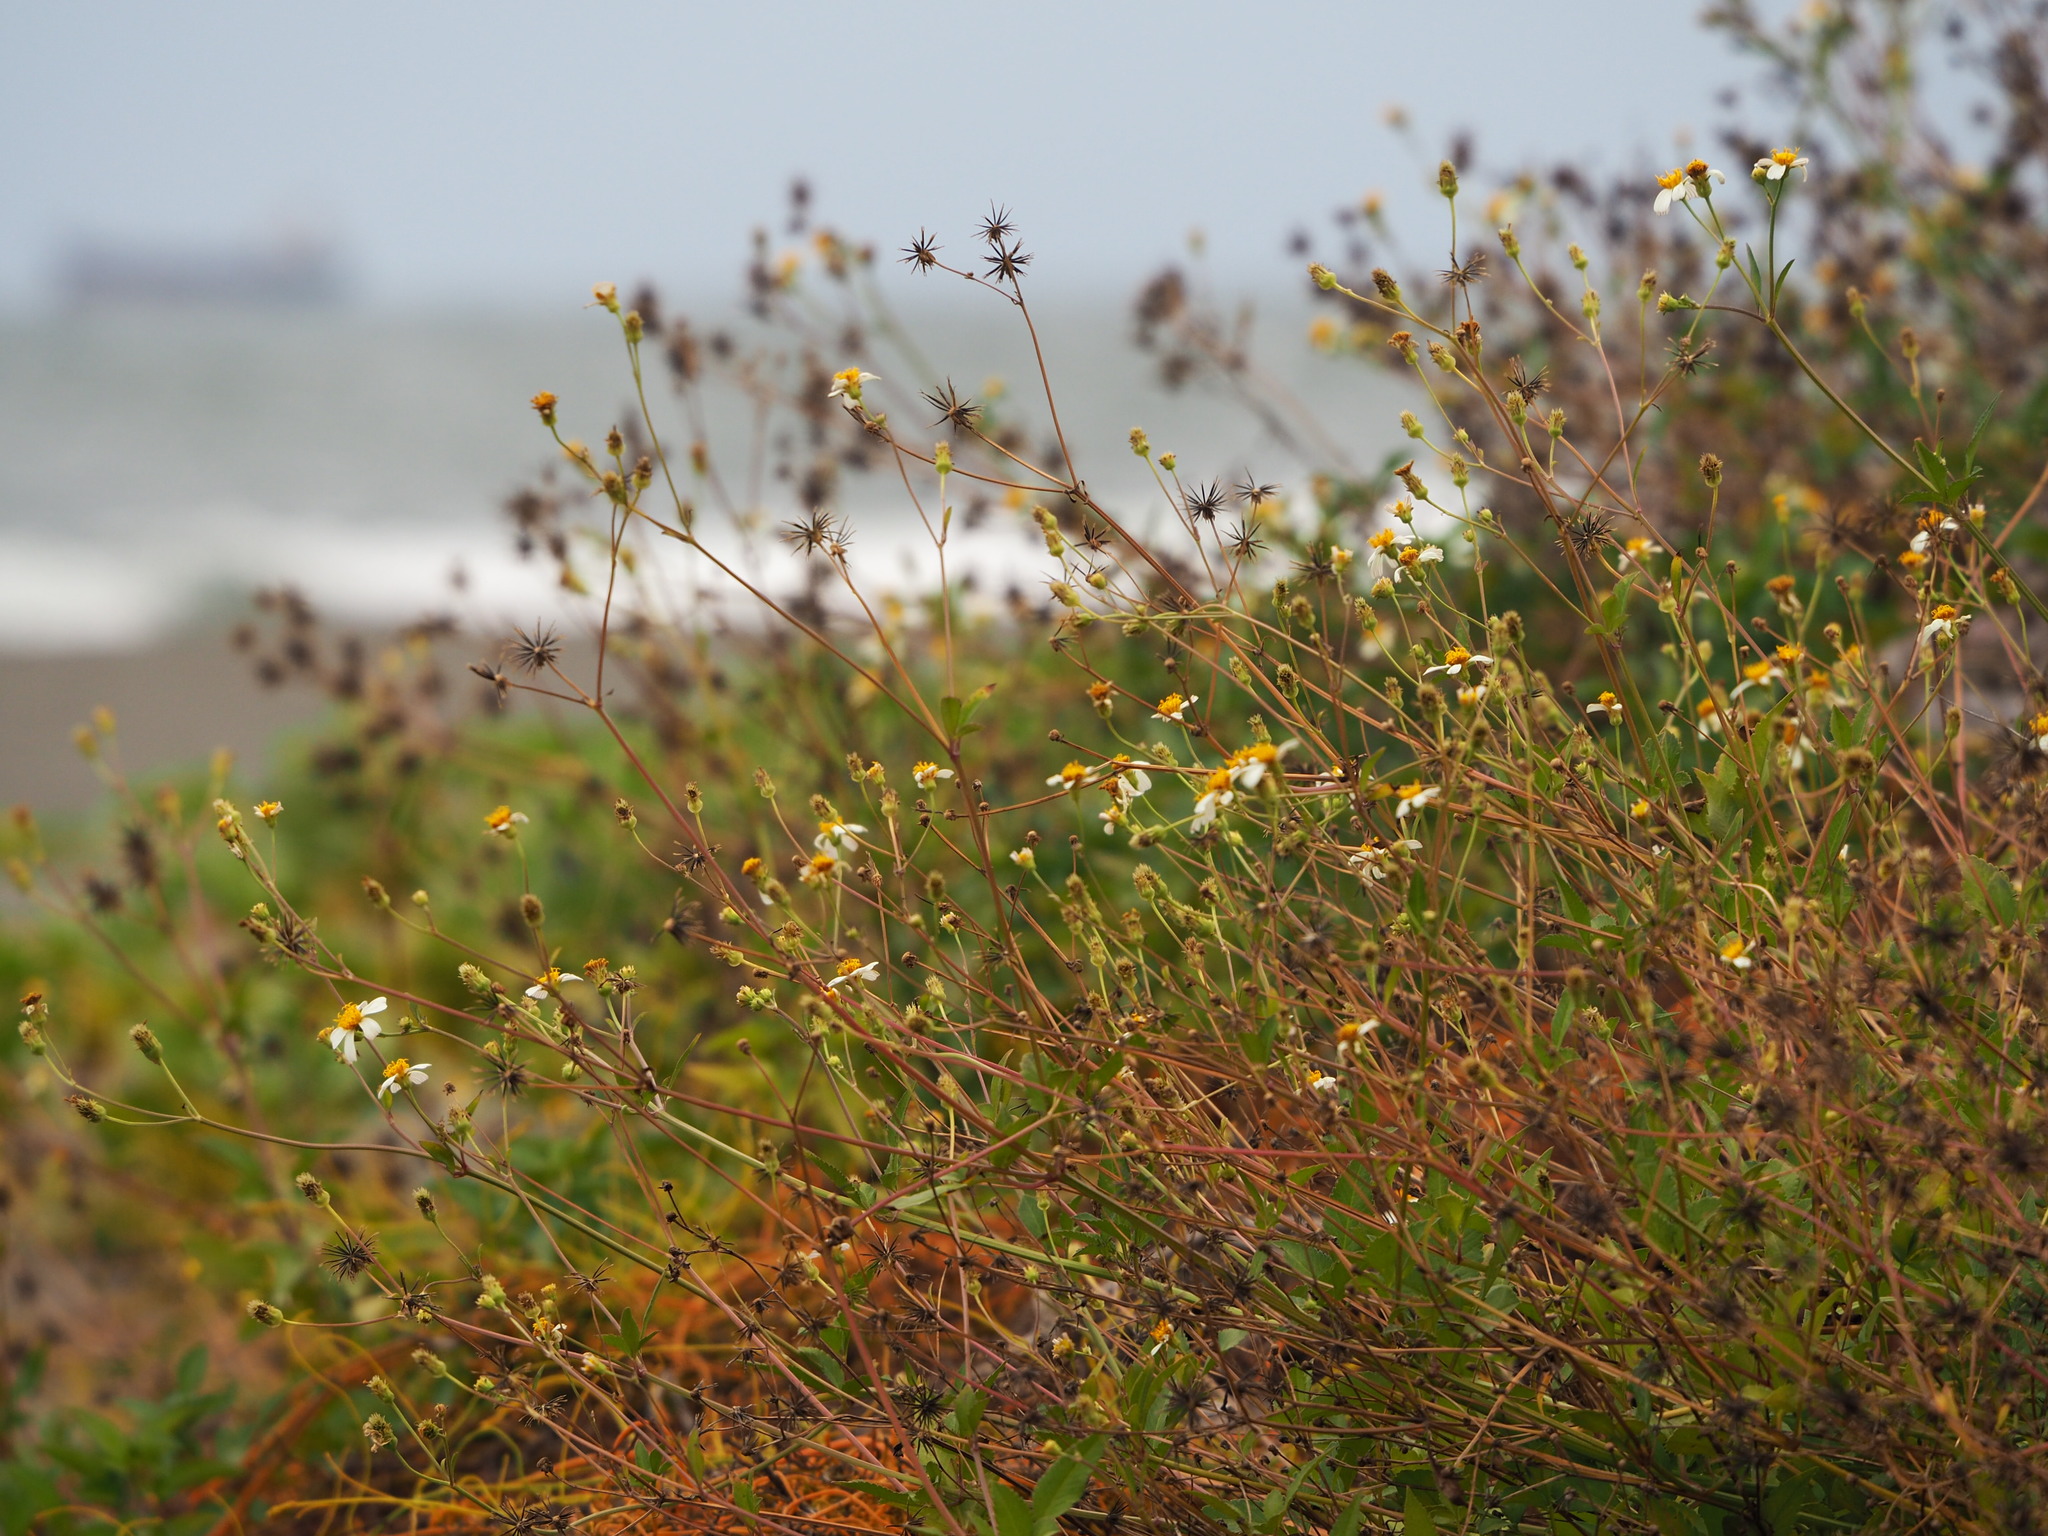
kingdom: Plantae
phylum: Tracheophyta
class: Magnoliopsida
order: Asterales
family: Asteraceae
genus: Bidens
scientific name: Bidens alba
